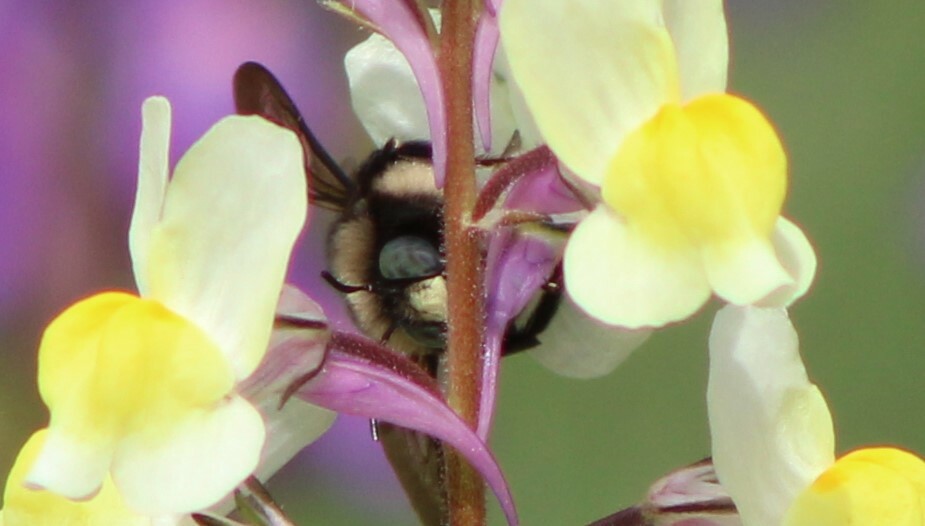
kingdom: Animalia
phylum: Arthropoda
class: Insecta
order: Hymenoptera
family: Apidae
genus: Xylocopa
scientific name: Xylocopa tabaniformis
